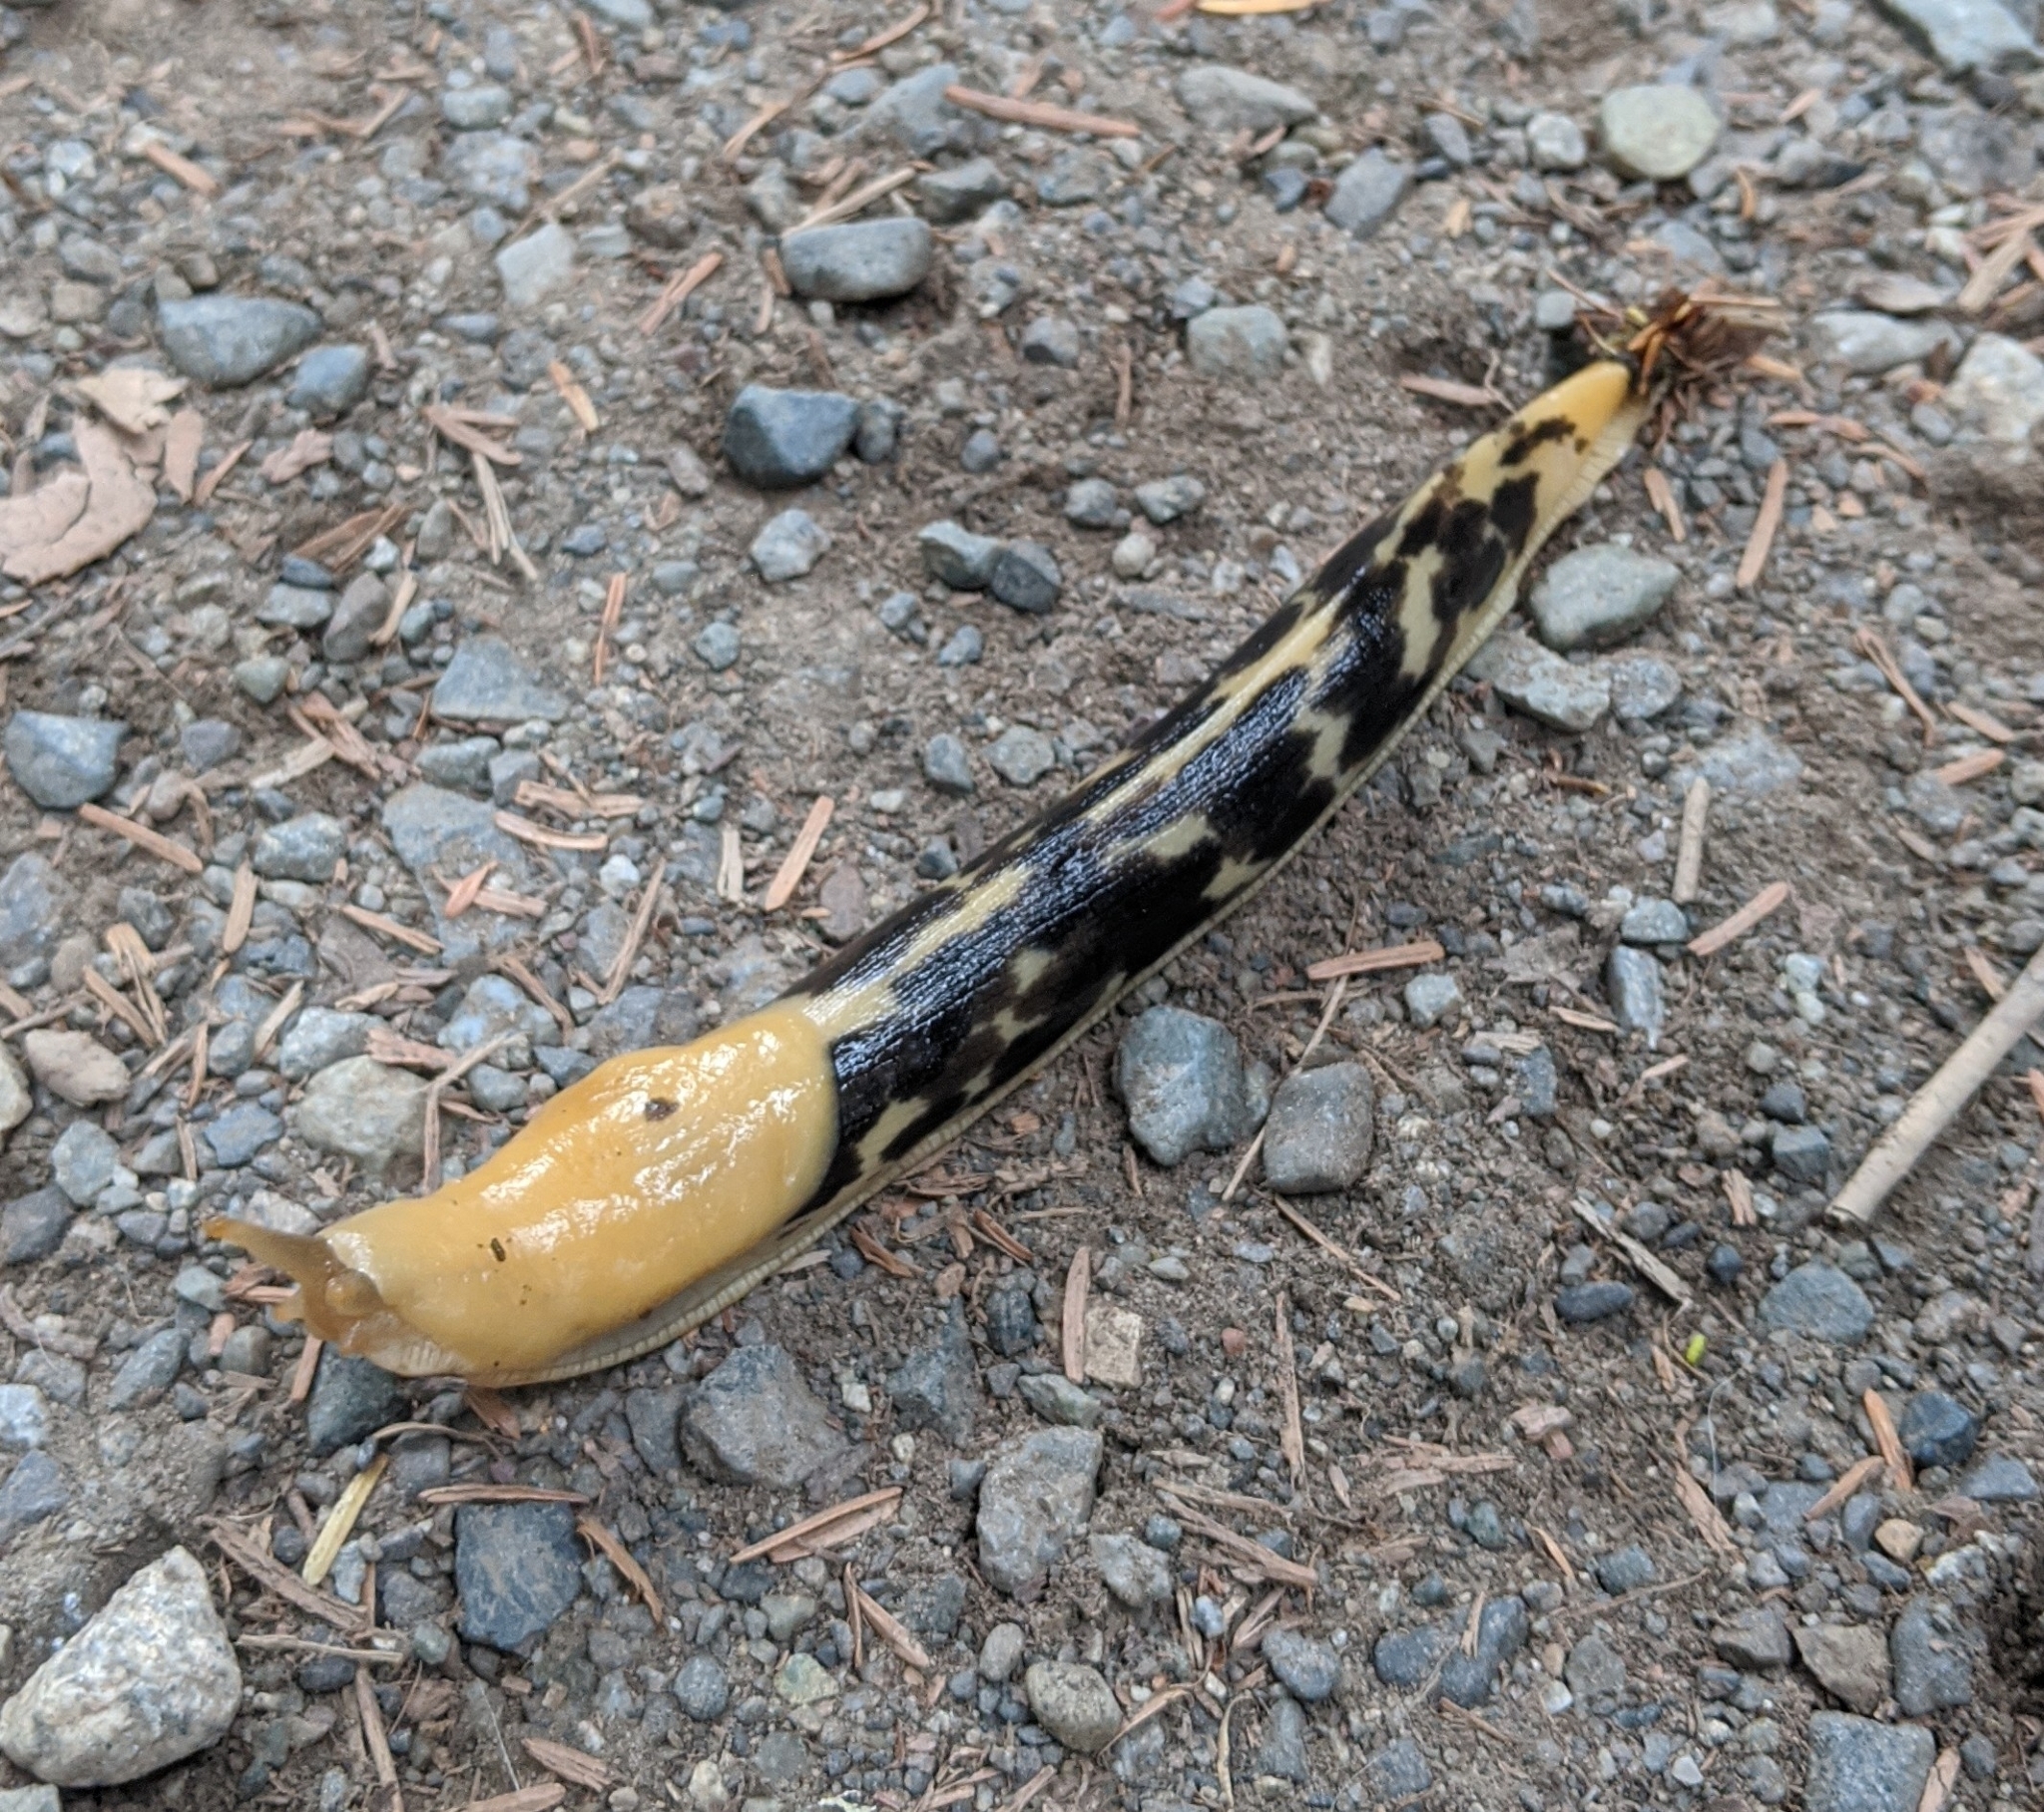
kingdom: Animalia
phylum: Mollusca
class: Gastropoda
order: Stylommatophora
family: Ariolimacidae
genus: Ariolimax
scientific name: Ariolimax columbianus
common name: Pacific banana slug
